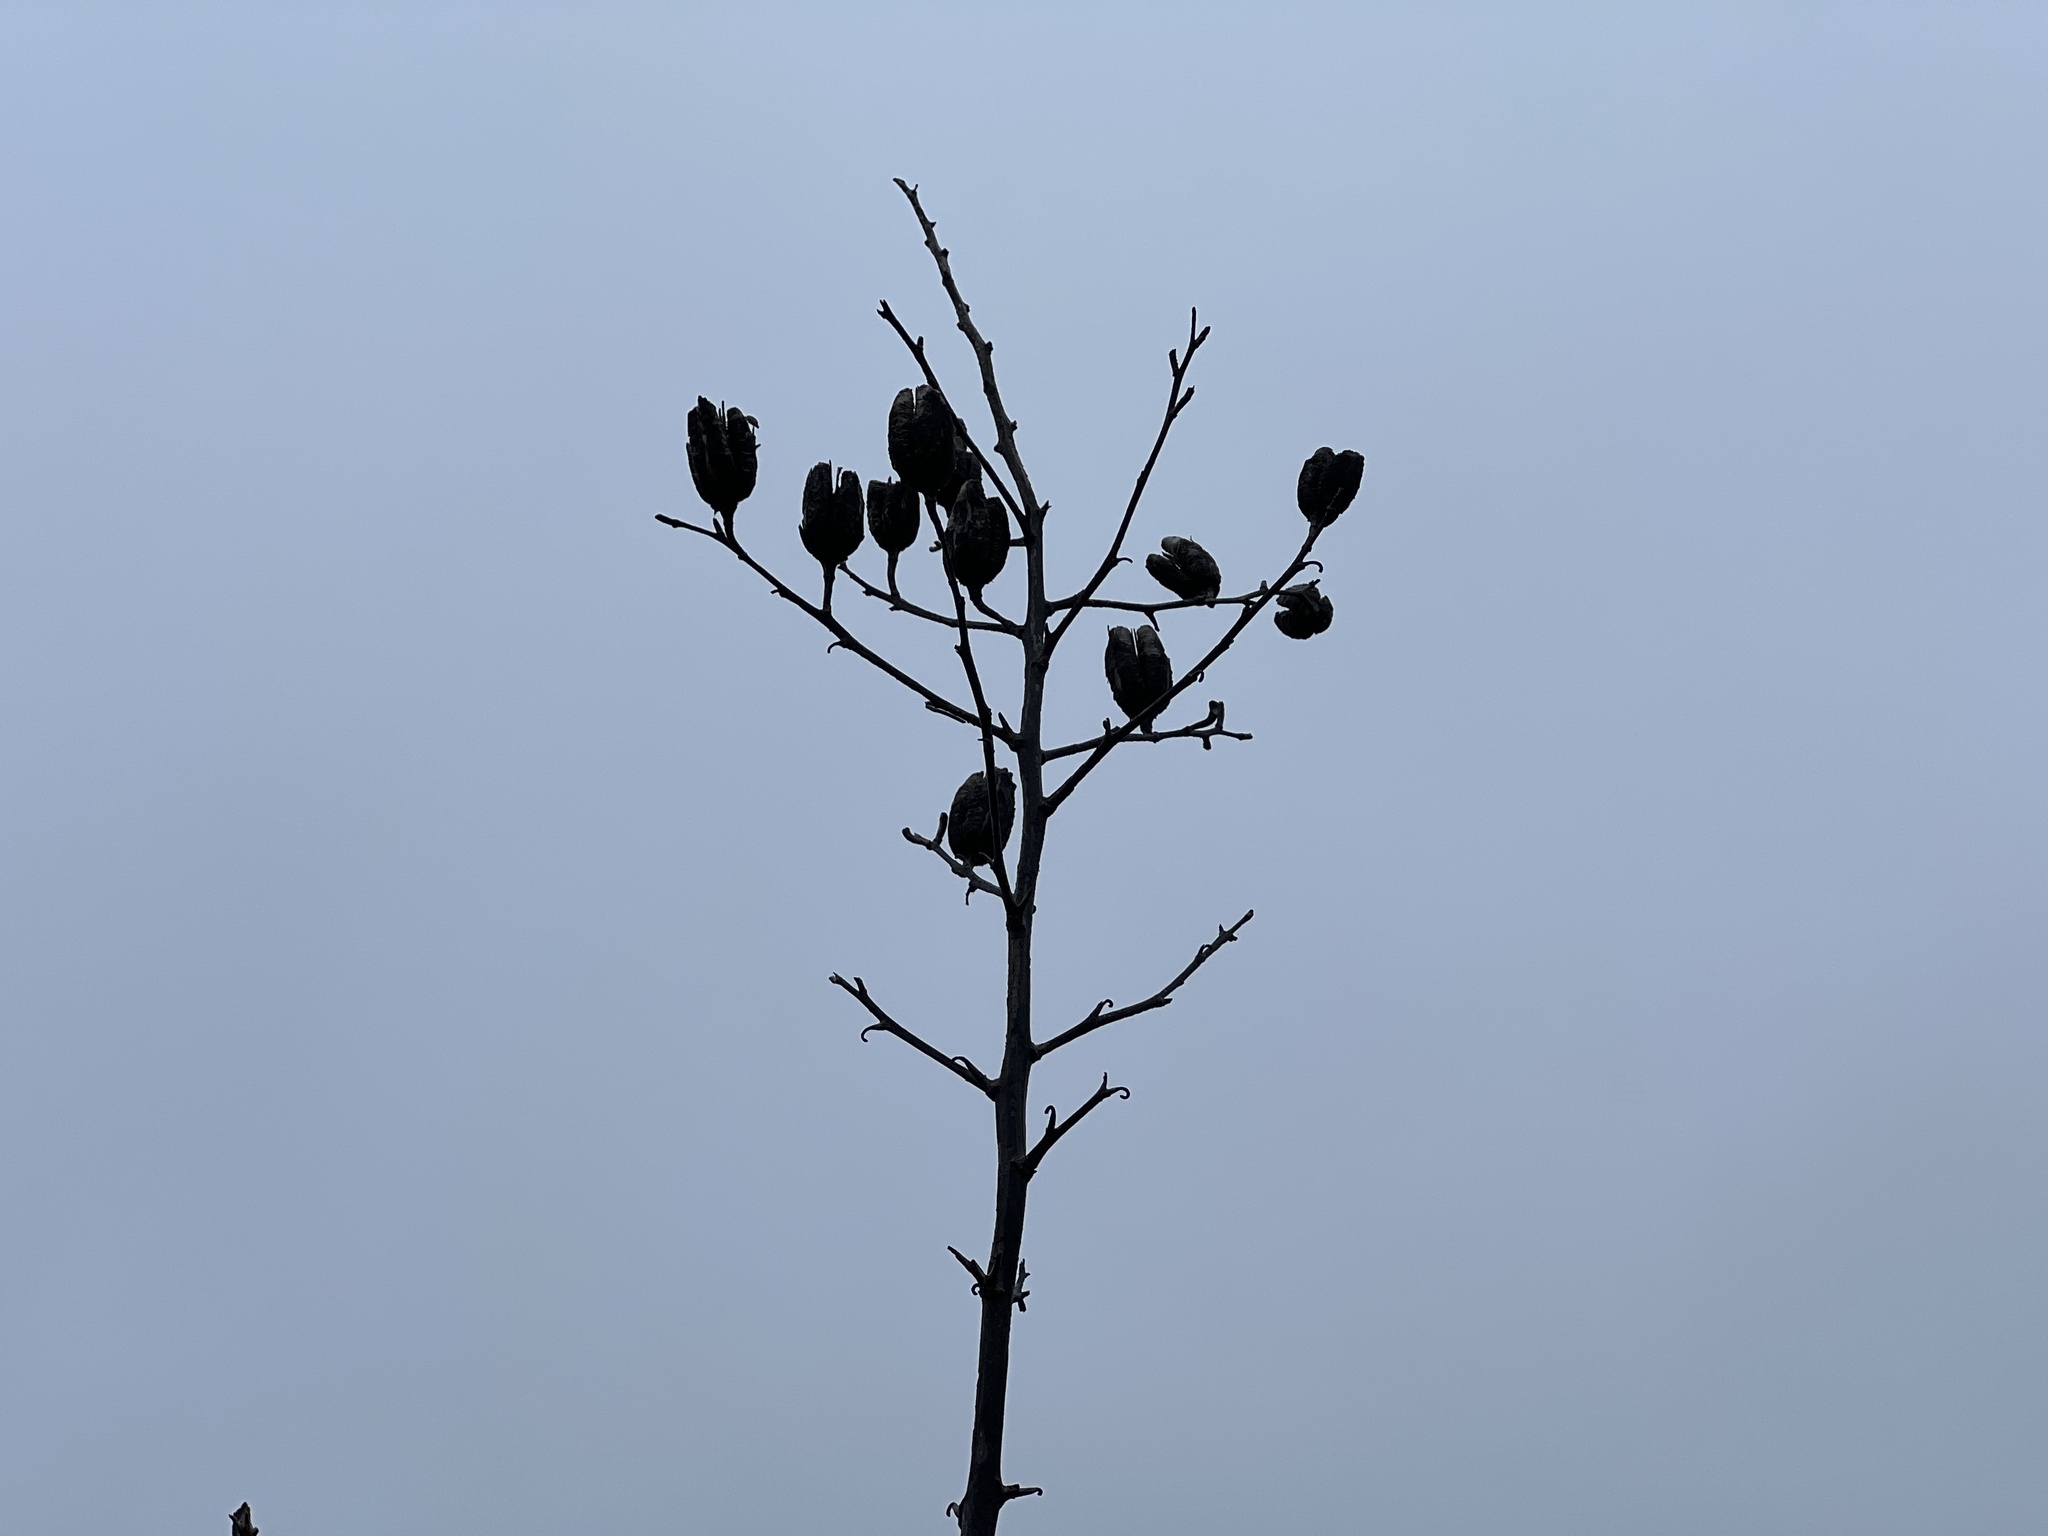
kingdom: Plantae
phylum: Tracheophyta
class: Liliopsida
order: Asparagales
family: Asparagaceae
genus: Yucca
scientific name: Yucca reverchonii
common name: San angelo yucca
